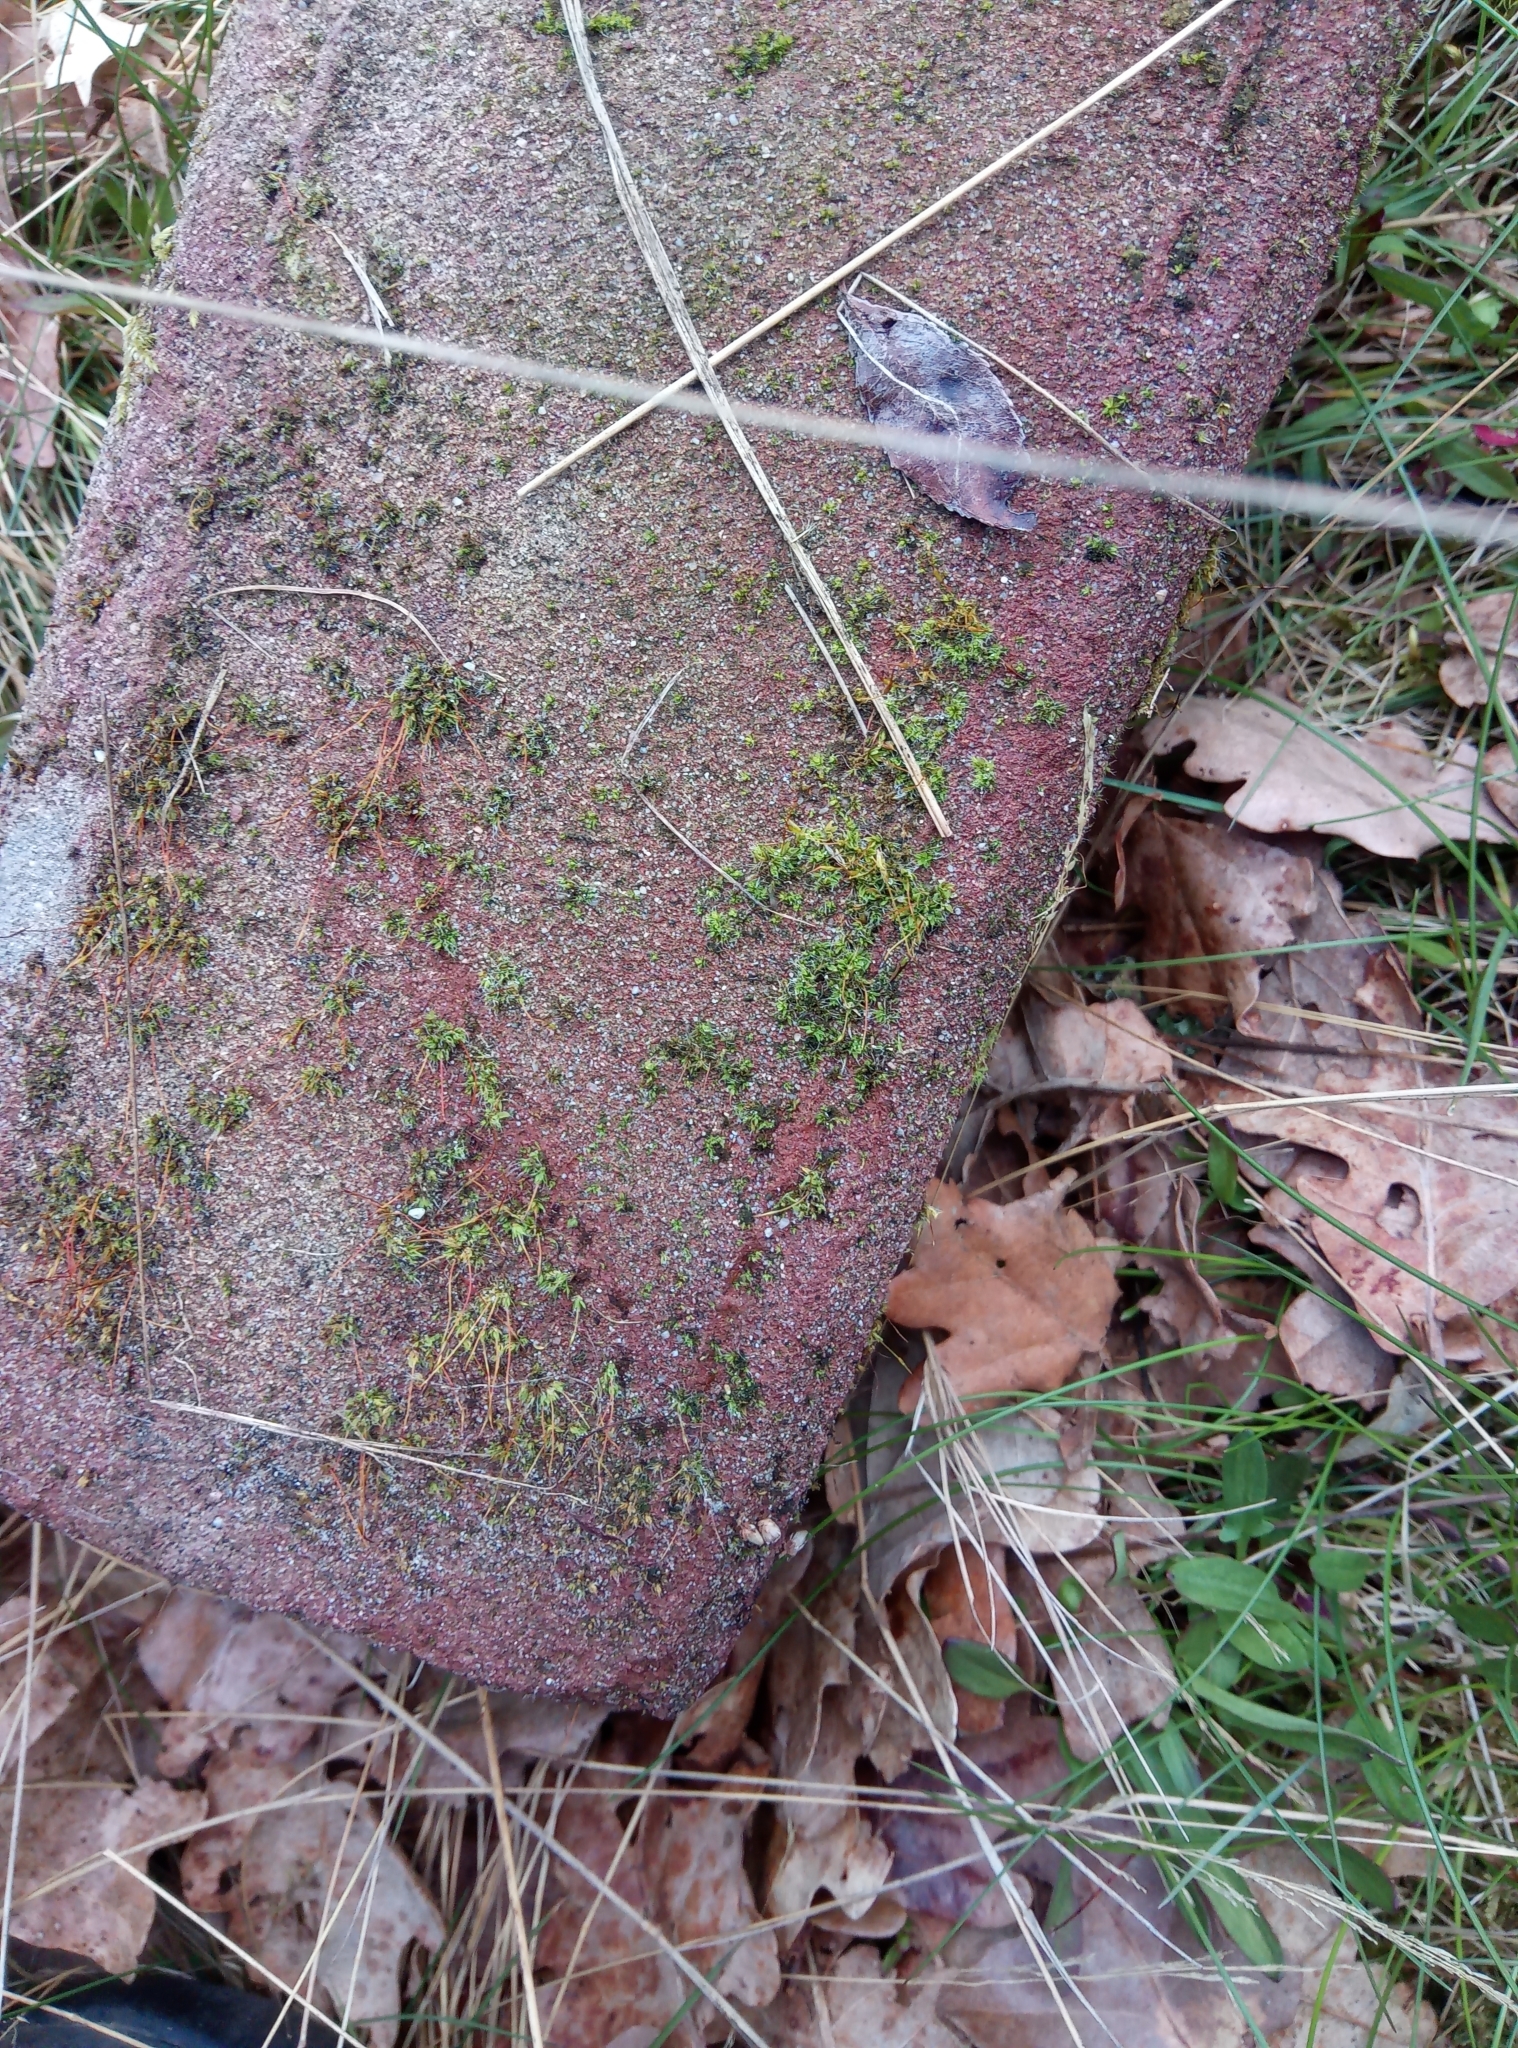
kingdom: Plantae
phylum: Bryophyta
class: Bryopsida
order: Pottiales
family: Pottiaceae
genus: Tortula
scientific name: Tortula muralis
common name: Wall screw-moss
